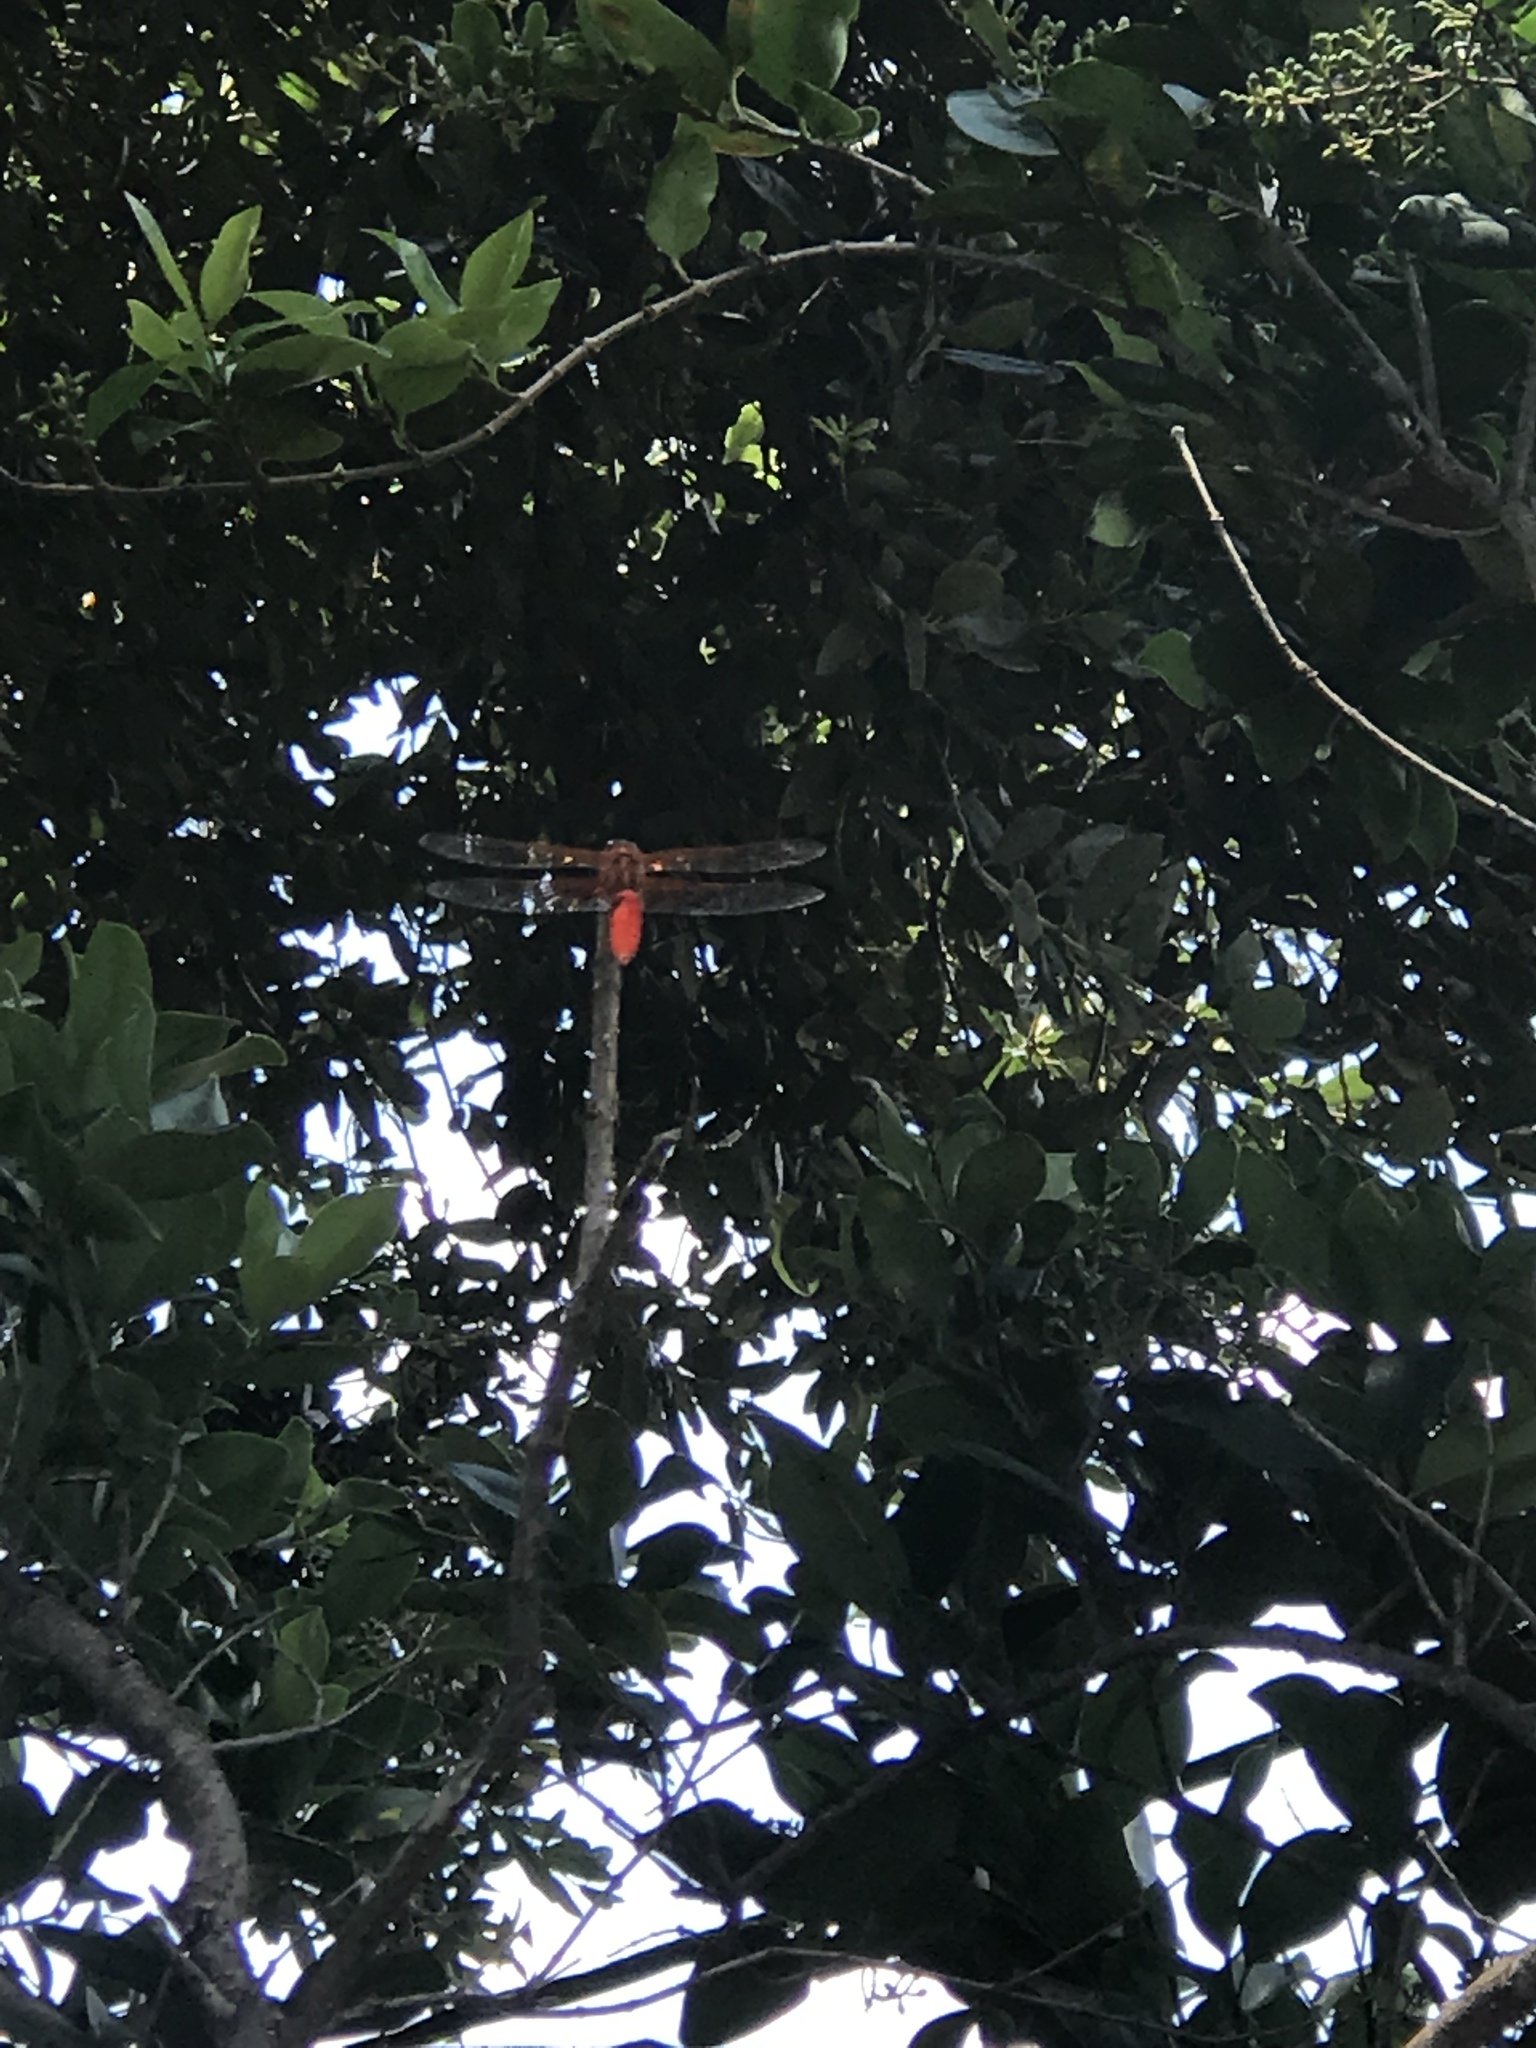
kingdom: Animalia
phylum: Arthropoda
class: Insecta
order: Odonata
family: Libellulidae
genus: Libellula
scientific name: Libellula croceipennis
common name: Neon skimmer
